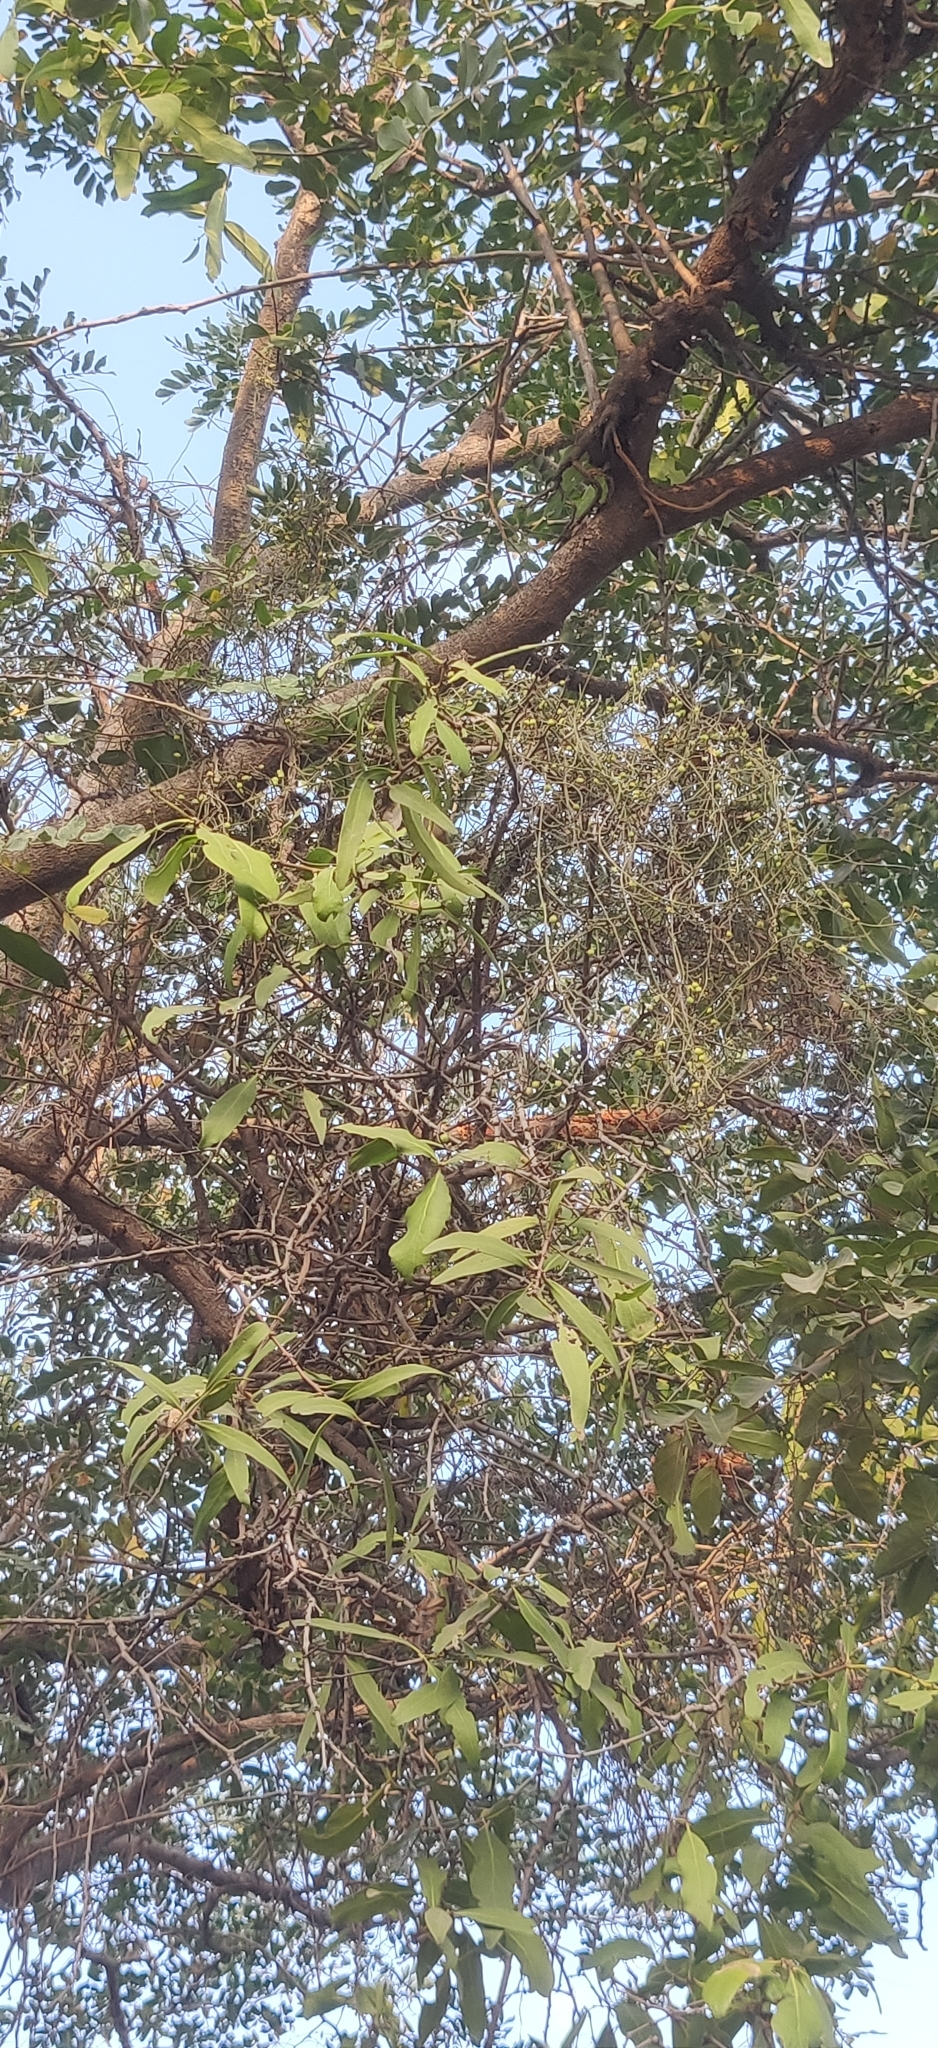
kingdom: Plantae
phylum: Tracheophyta
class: Magnoliopsida
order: Santalales
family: Loranthaceae
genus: Dendrophthoe
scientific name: Dendrophthoe falcata
